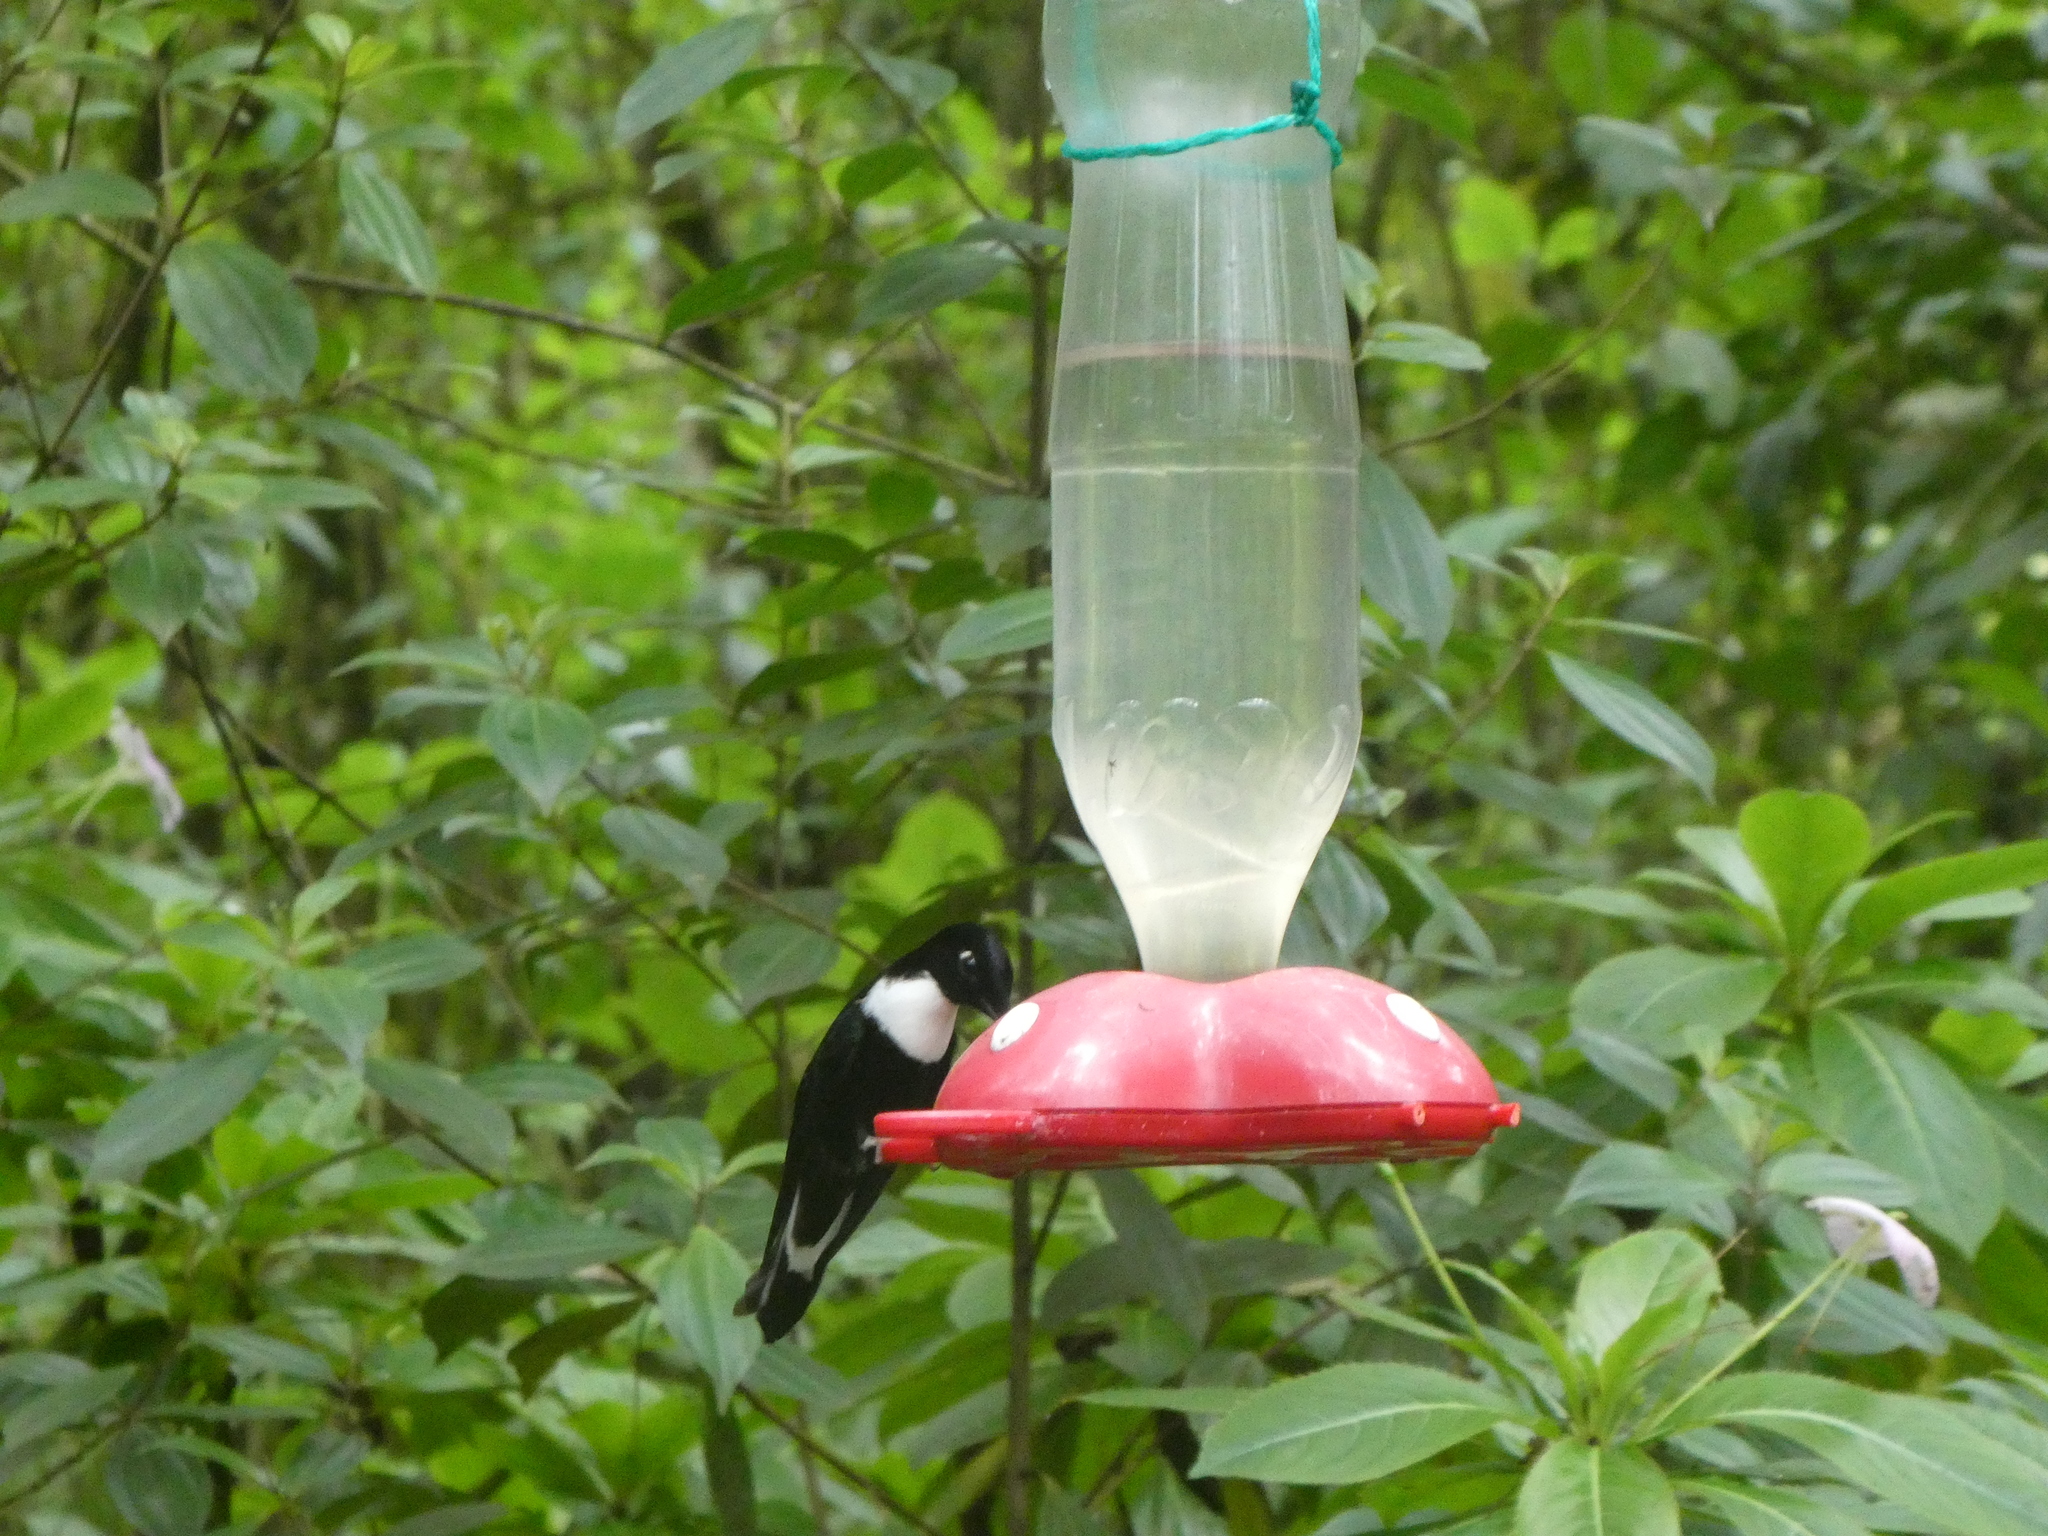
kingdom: Animalia
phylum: Chordata
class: Aves
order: Apodiformes
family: Trochilidae
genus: Coeligena
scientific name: Coeligena torquata
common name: Collared inca
